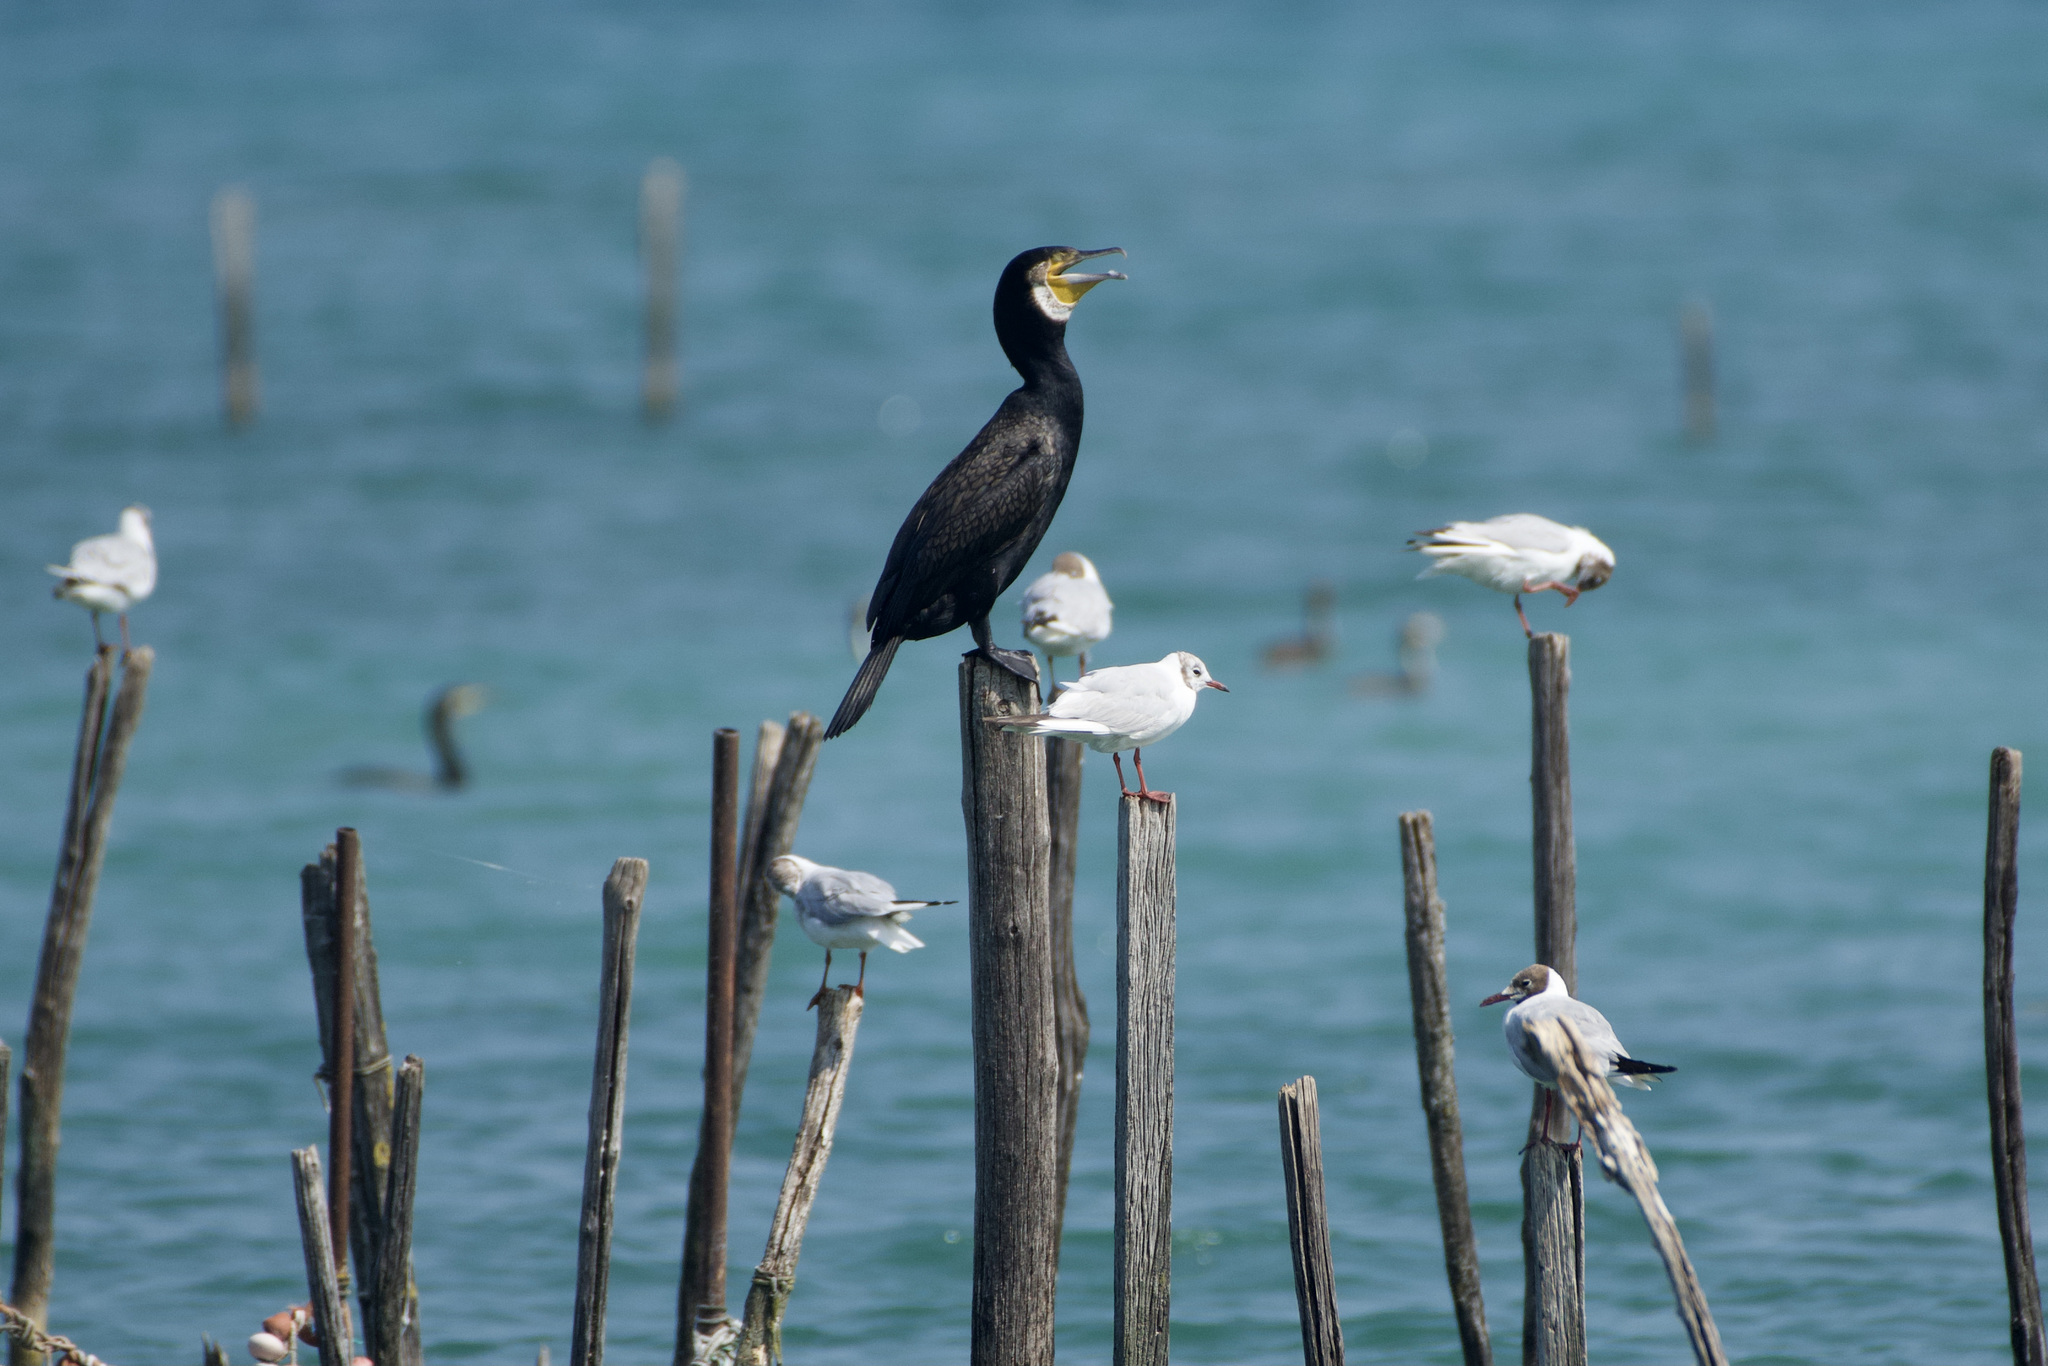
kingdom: Animalia
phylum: Chordata
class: Aves
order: Suliformes
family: Phalacrocoracidae
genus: Phalacrocorax
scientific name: Phalacrocorax carbo
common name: Great cormorant
